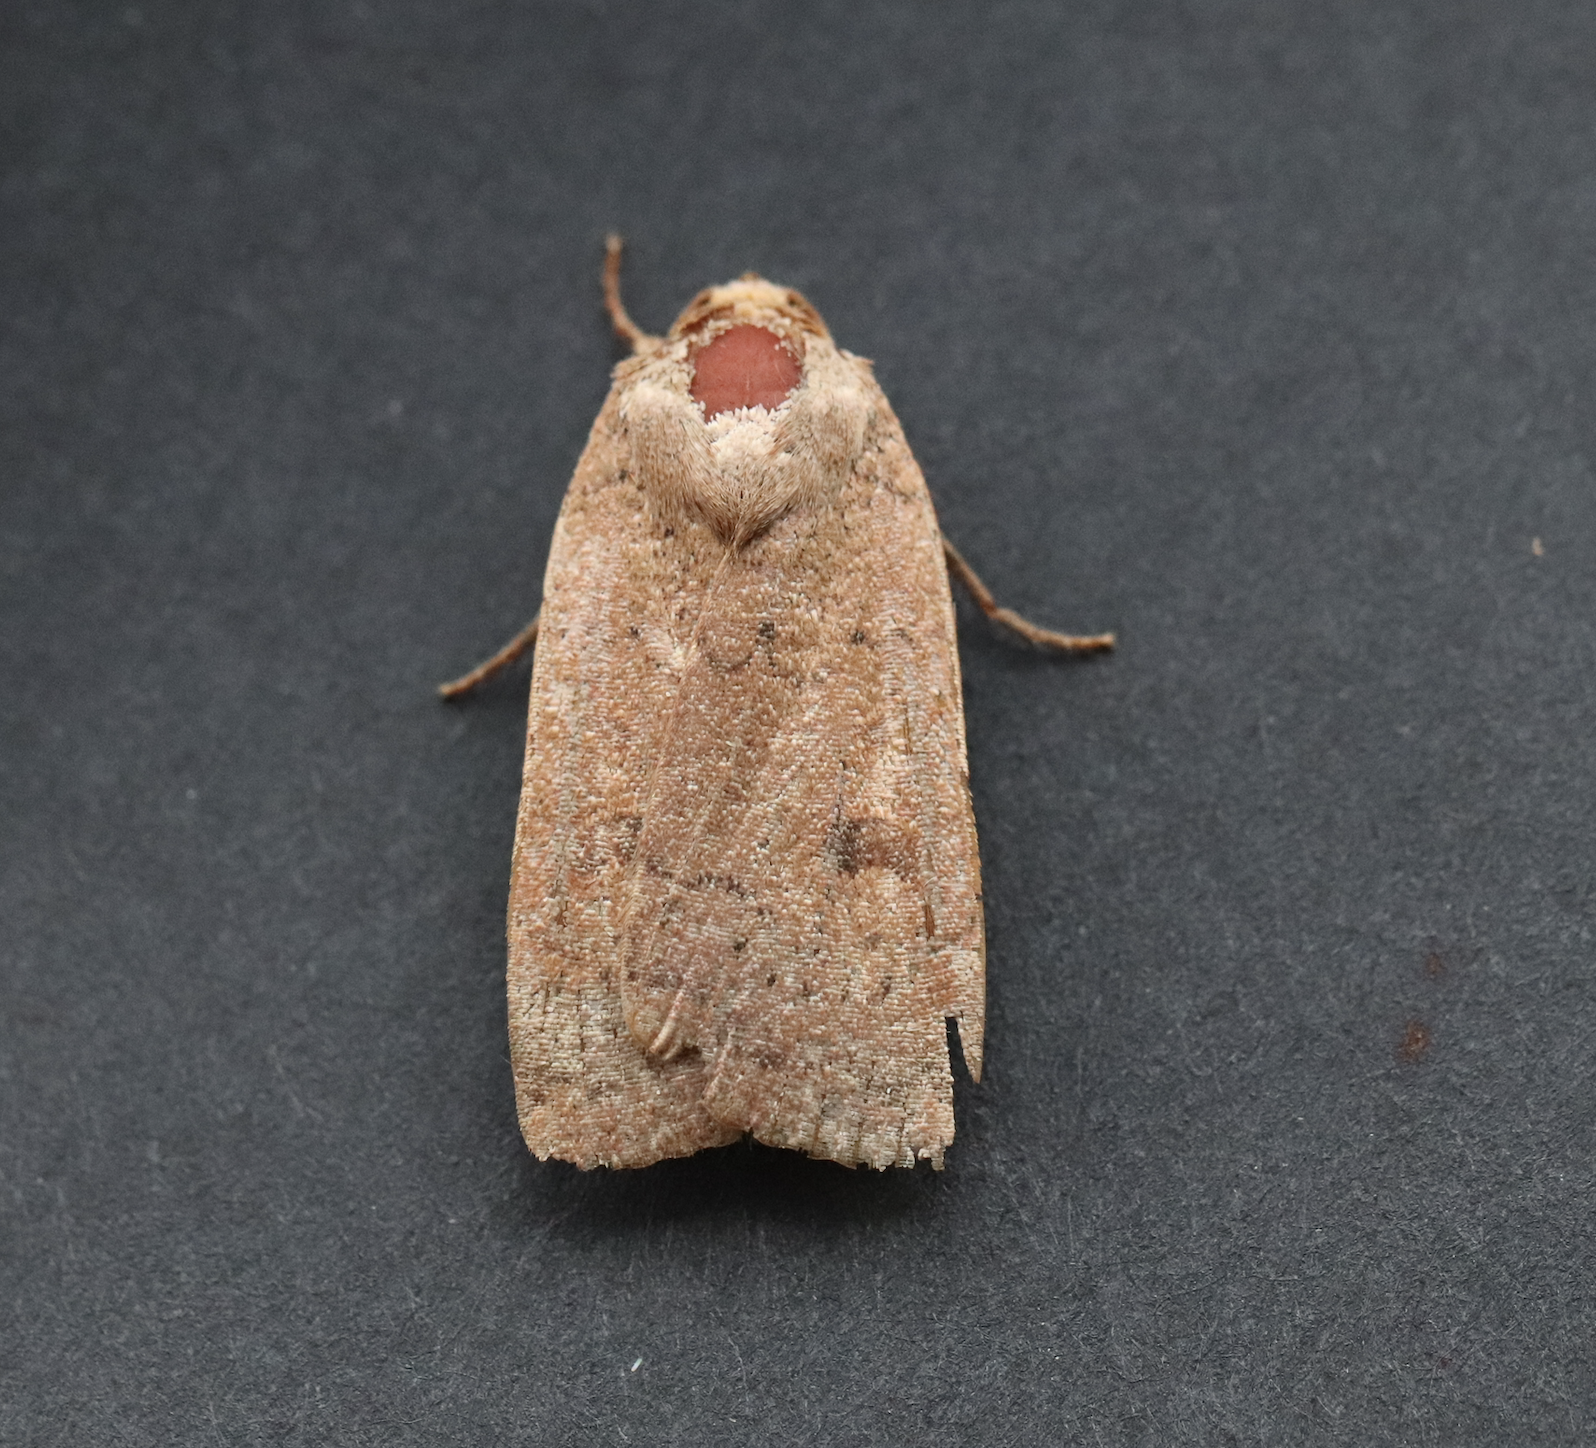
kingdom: Animalia
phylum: Arthropoda
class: Insecta
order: Lepidoptera
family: Noctuidae
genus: Noctua
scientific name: Noctua comes
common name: Lesser yellow underwing
